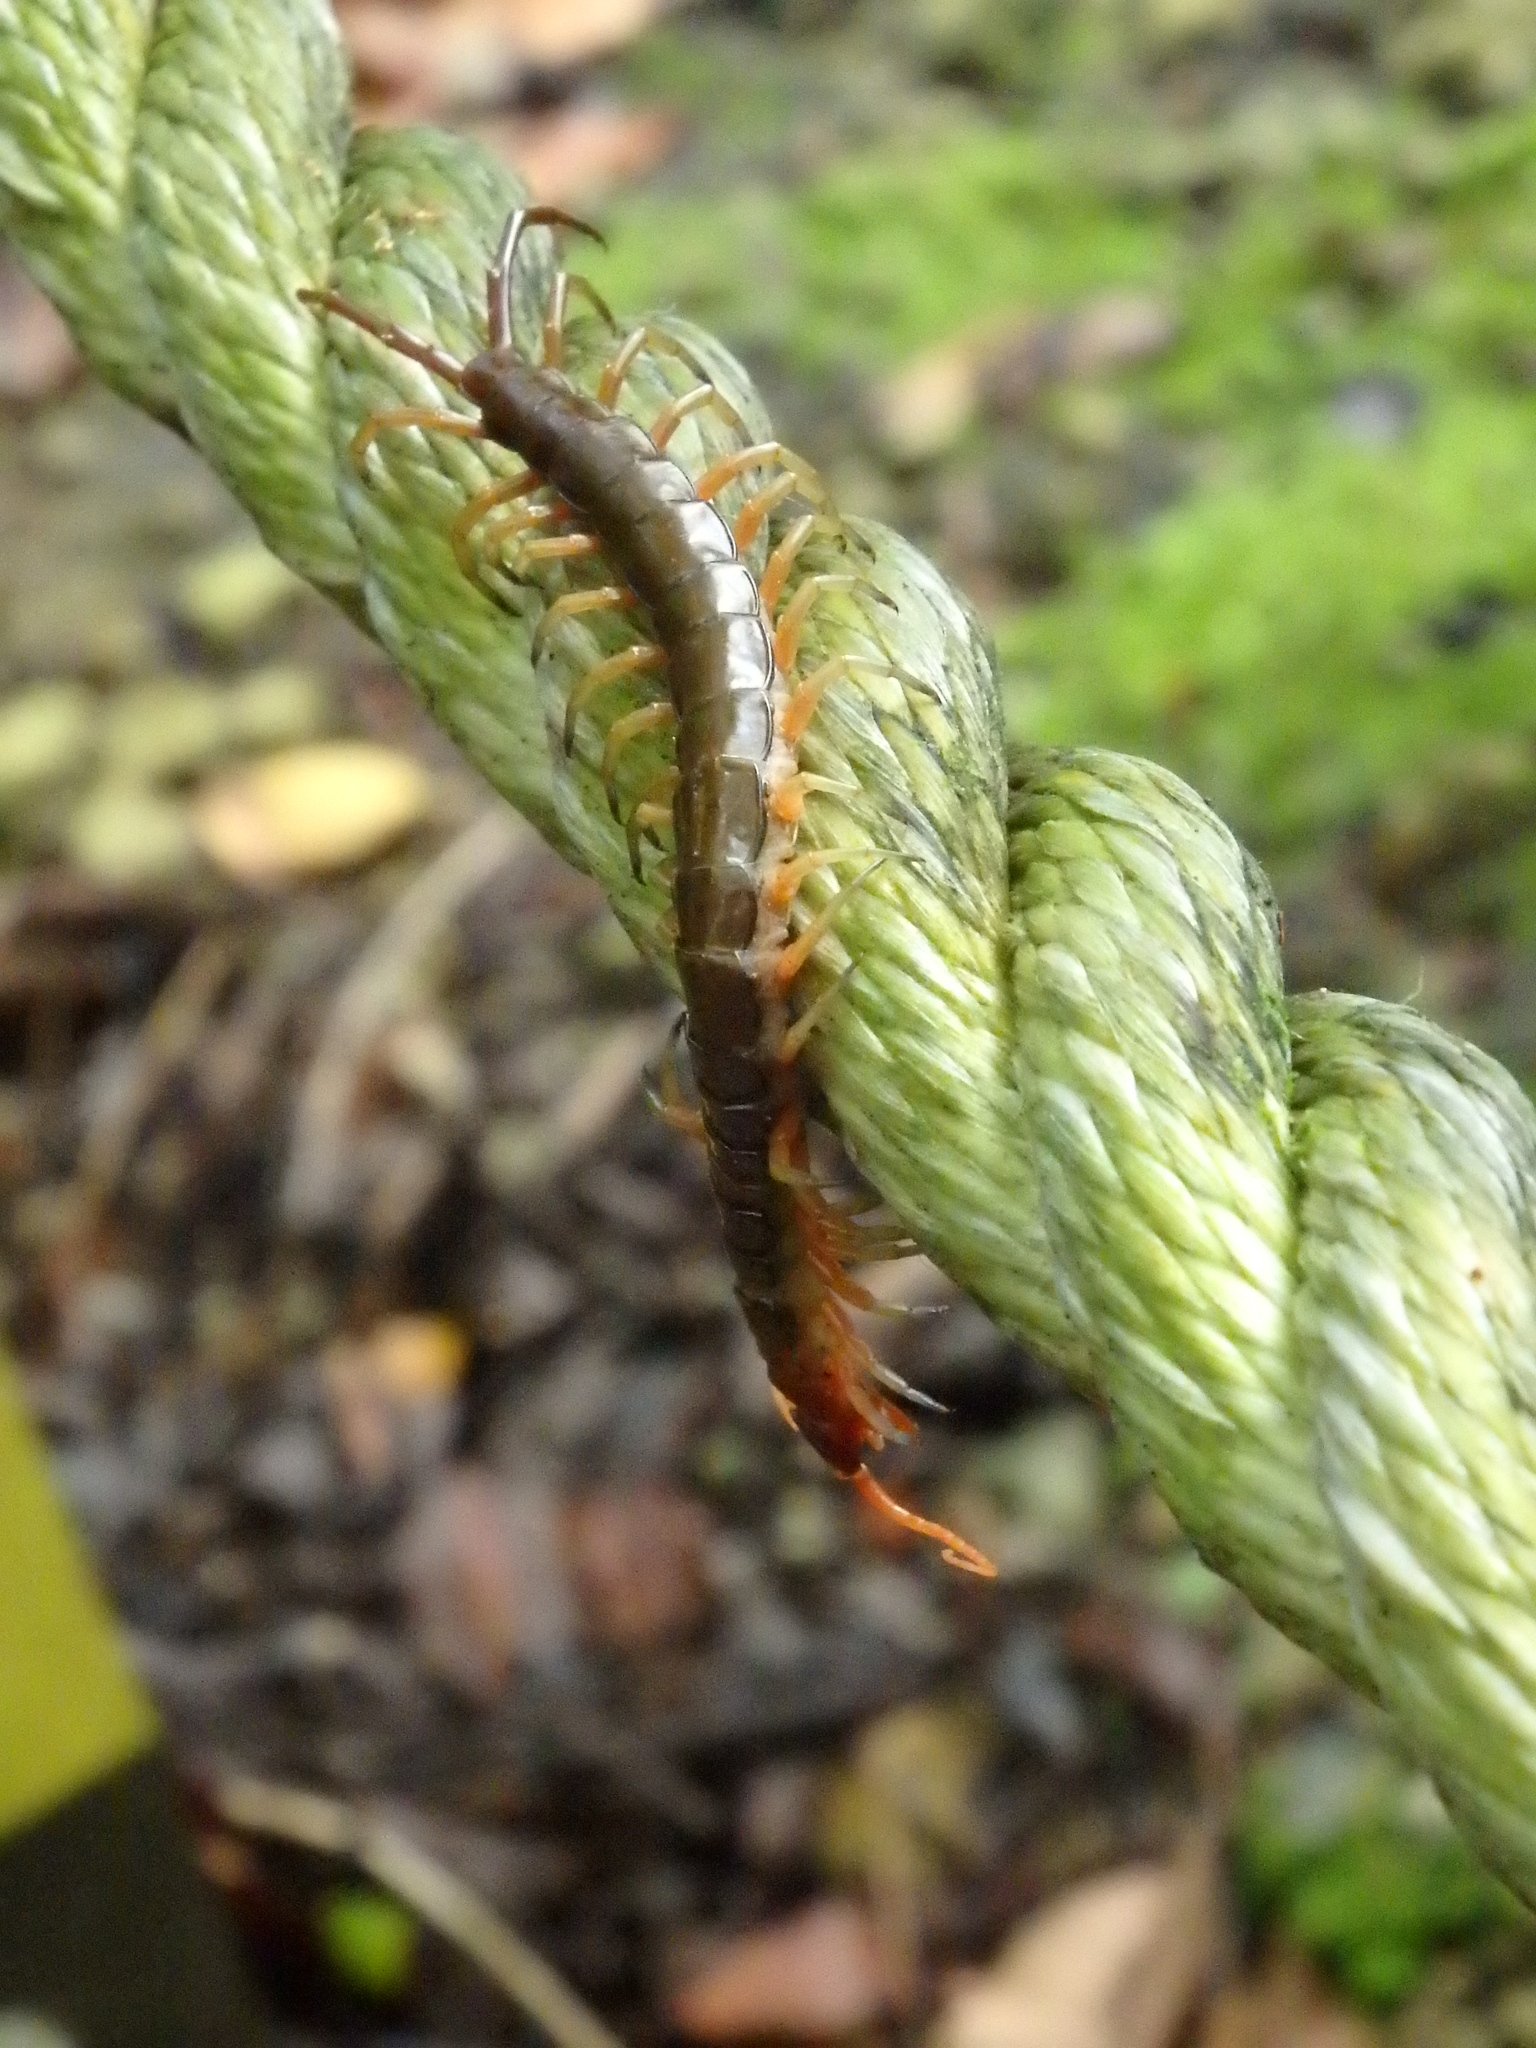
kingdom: Animalia
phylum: Arthropoda
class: Chilopoda
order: Scolopendromorpha
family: Scolopendridae
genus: Scolopendra
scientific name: Scolopendra subspinipes
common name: Centipede
